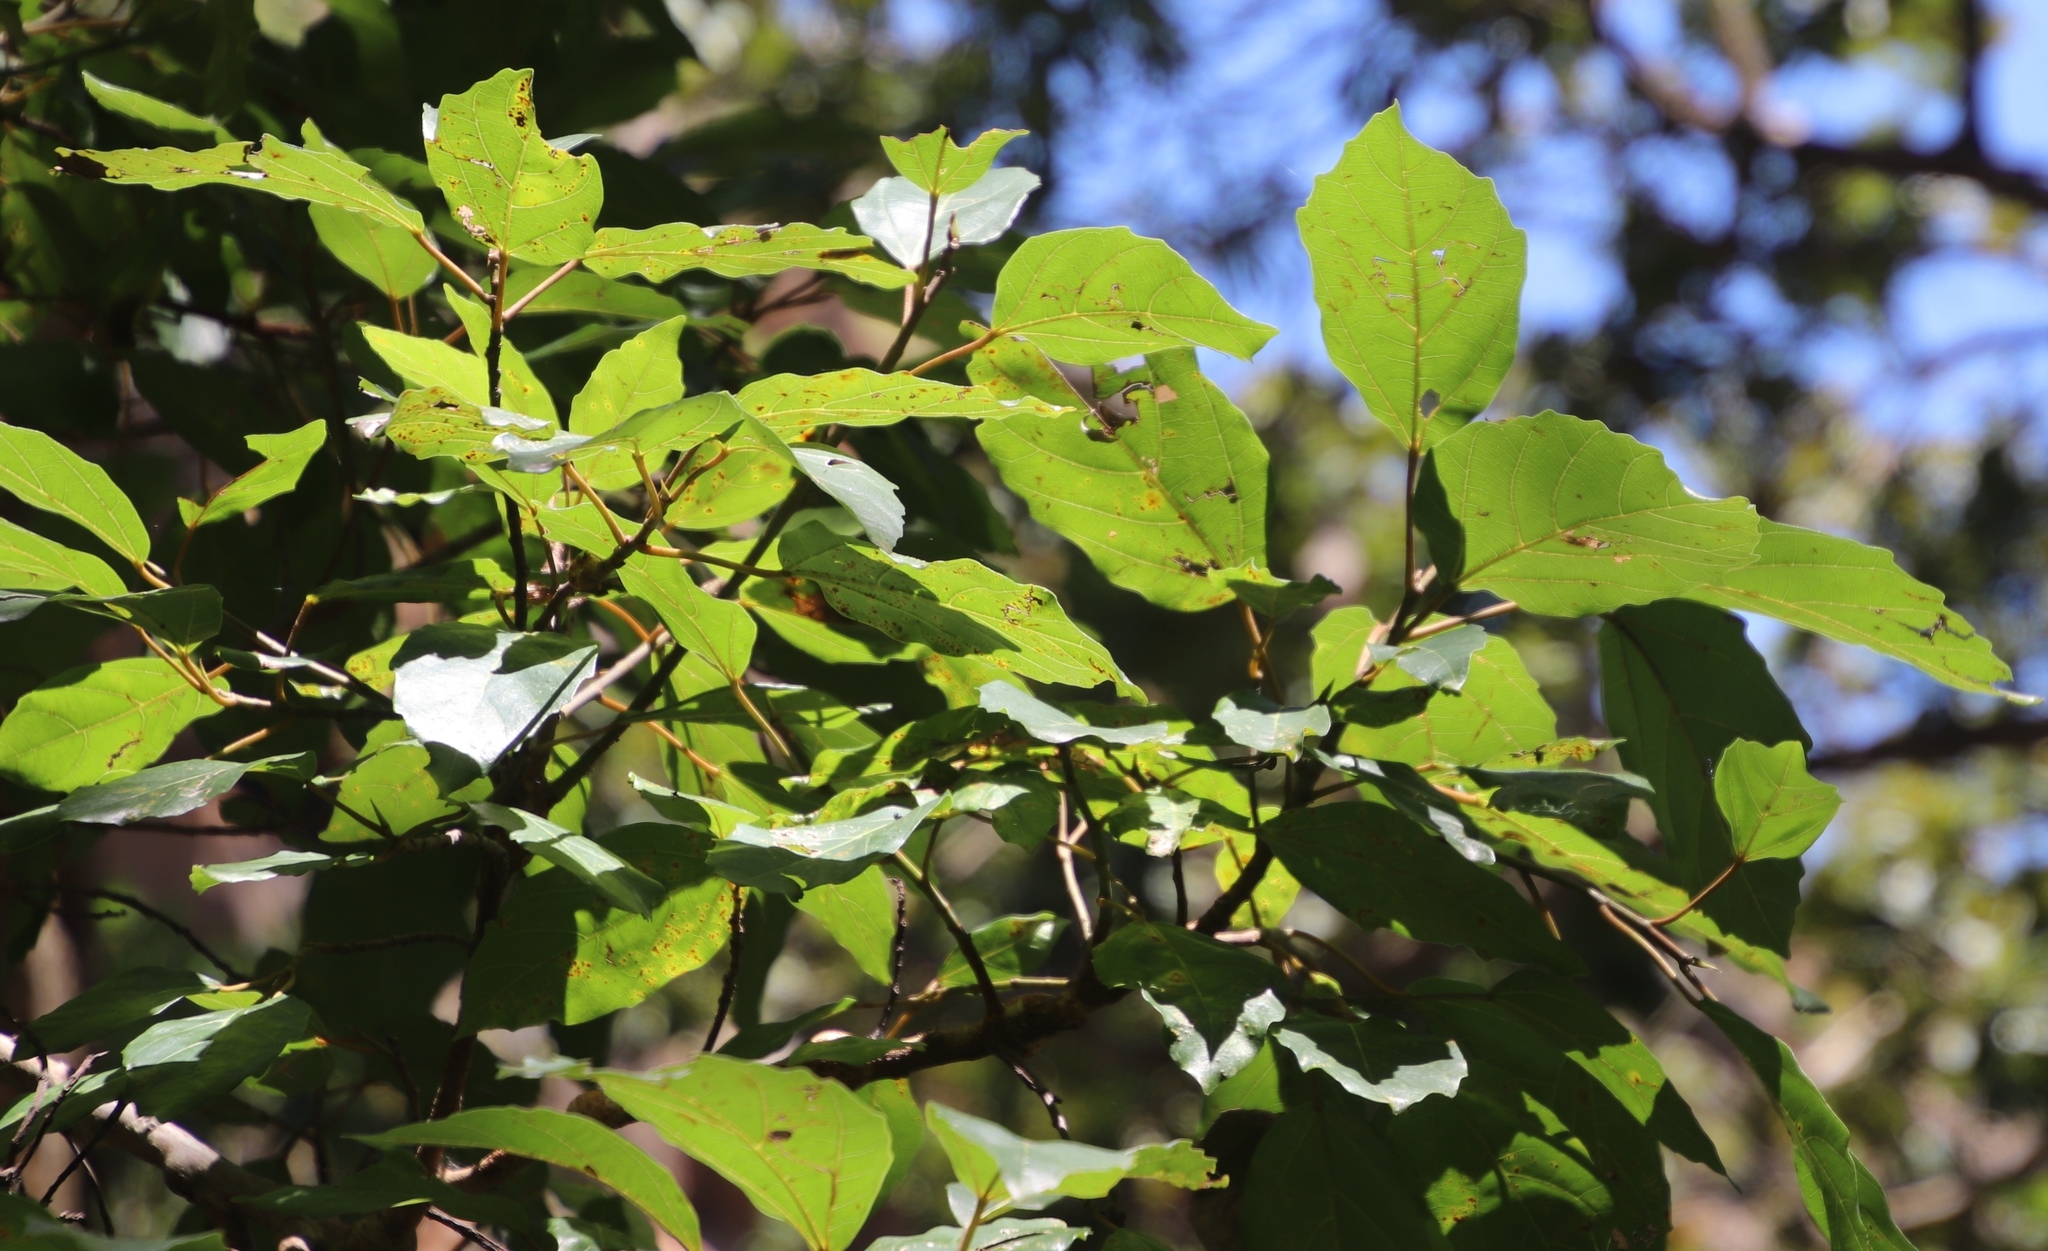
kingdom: Plantae
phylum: Tracheophyta
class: Magnoliopsida
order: Rosales
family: Moraceae
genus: Ficus
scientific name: Ficus sur
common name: Cape fig
